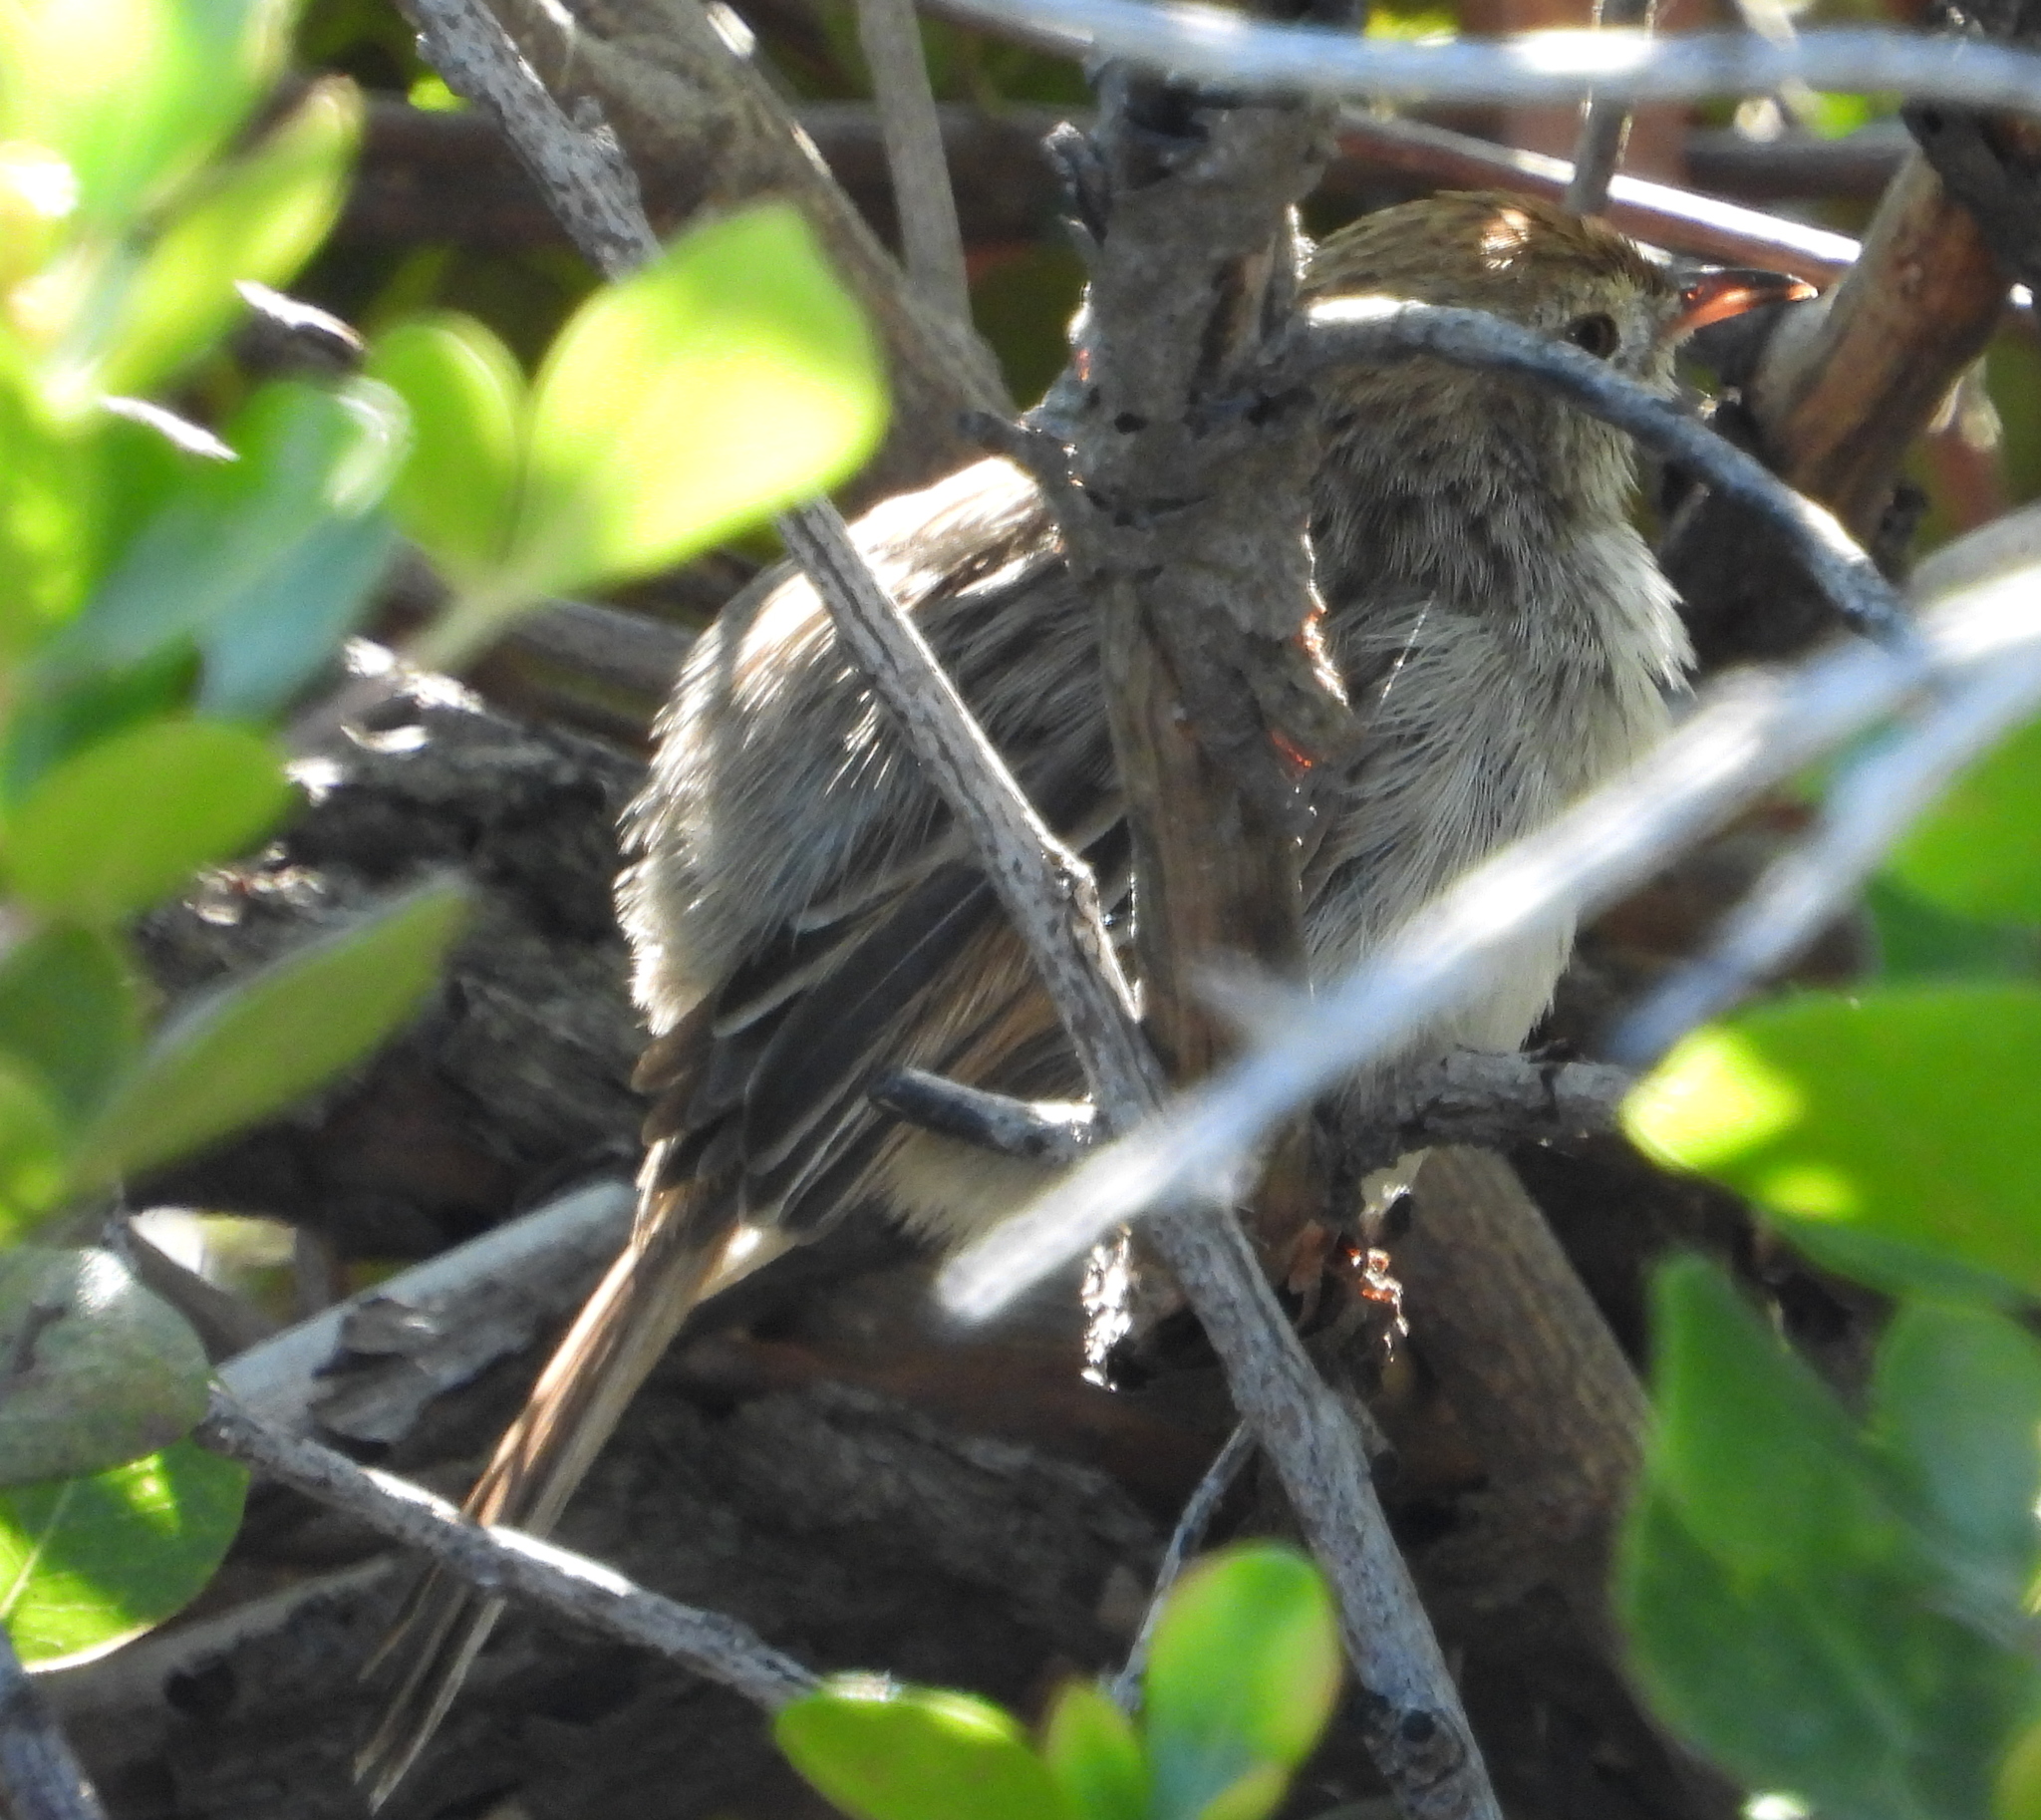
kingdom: Animalia
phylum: Chordata
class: Aves
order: Passeriformes
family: Cisticolidae
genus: Cisticola
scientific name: Cisticola subruficapilla
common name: Grey-backed cisticola
